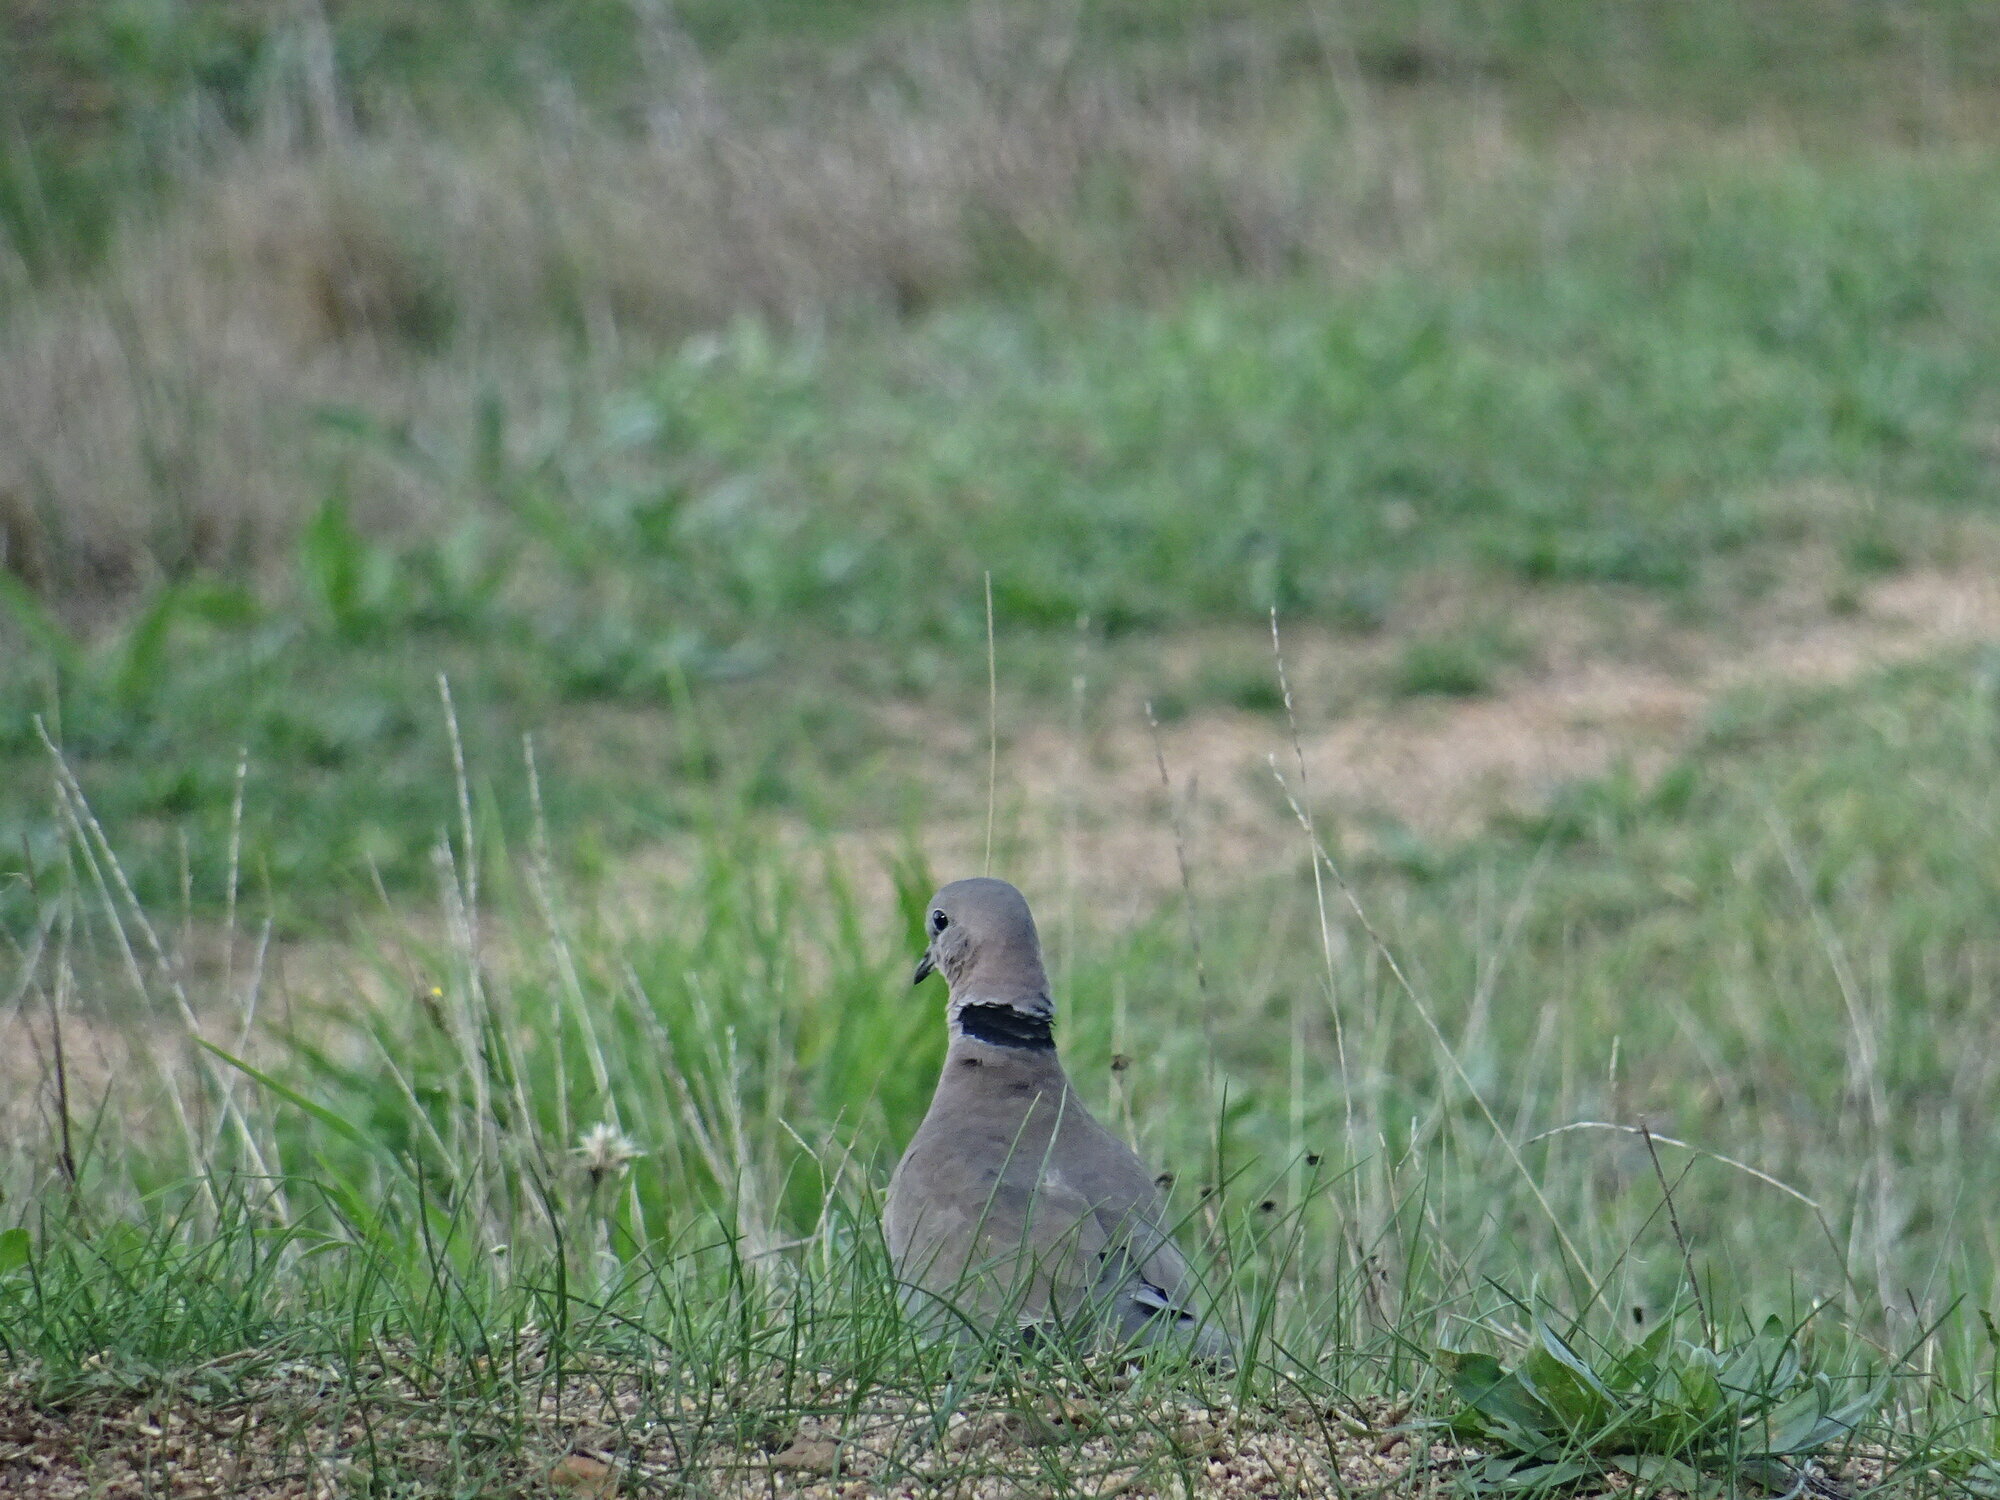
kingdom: Animalia
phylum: Chordata
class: Aves
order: Columbiformes
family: Columbidae
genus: Streptopelia
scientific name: Streptopelia capicola
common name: Ring-necked dove
